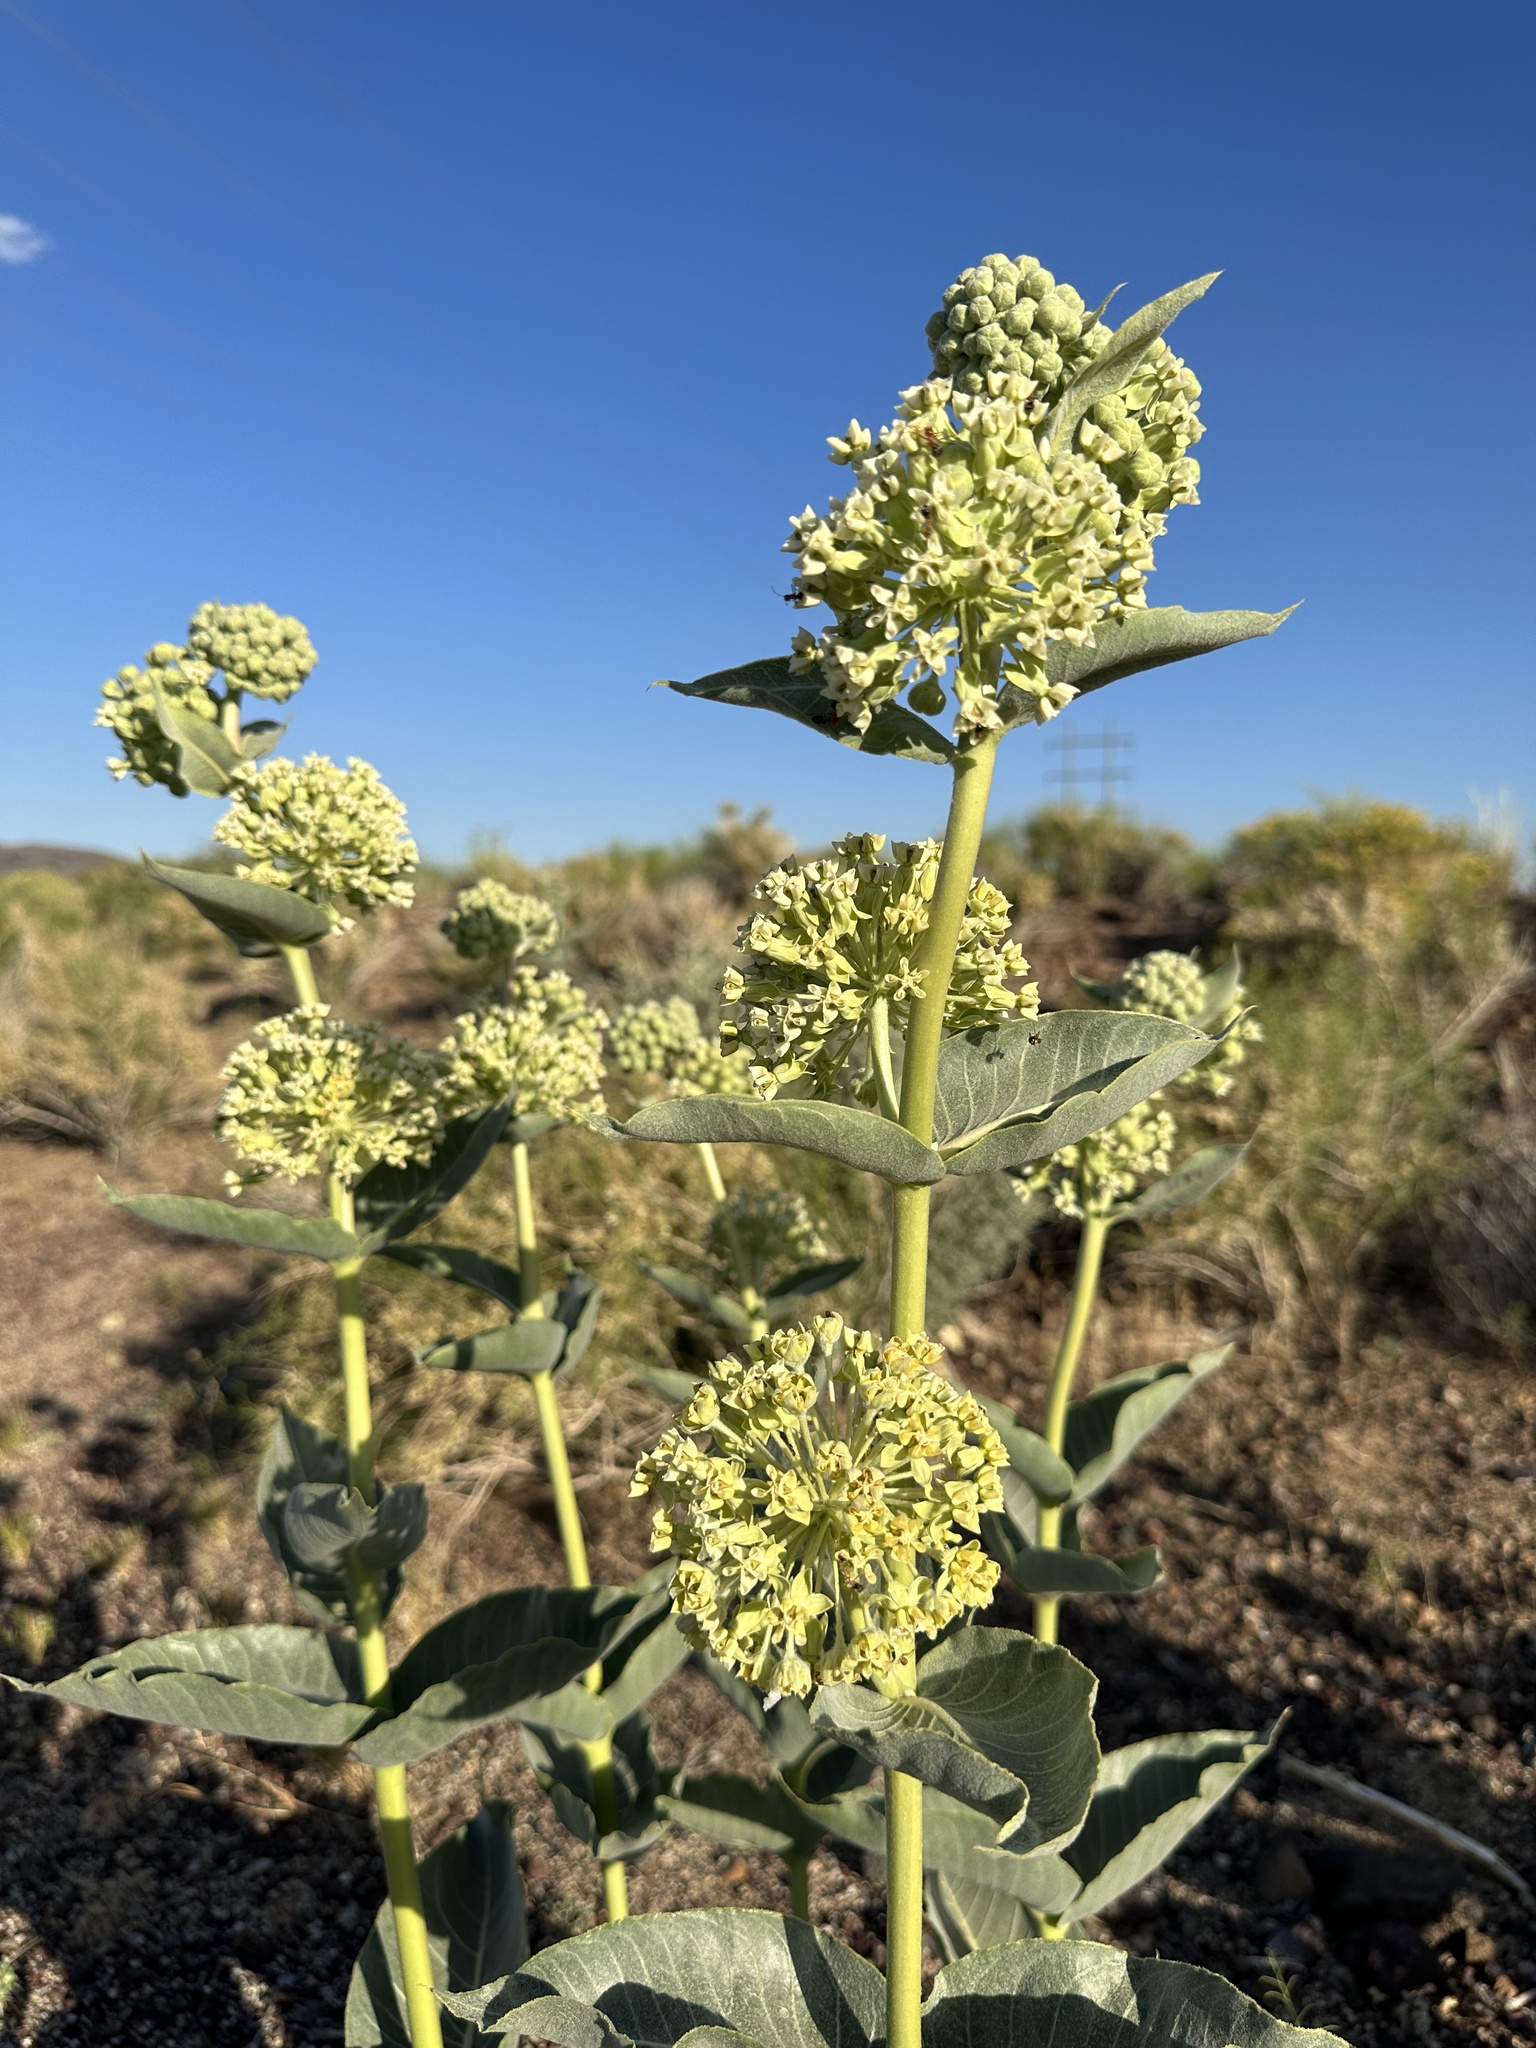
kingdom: Plantae
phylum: Tracheophyta
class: Magnoliopsida
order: Gentianales
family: Apocynaceae
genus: Asclepias
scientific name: Asclepias erosa
